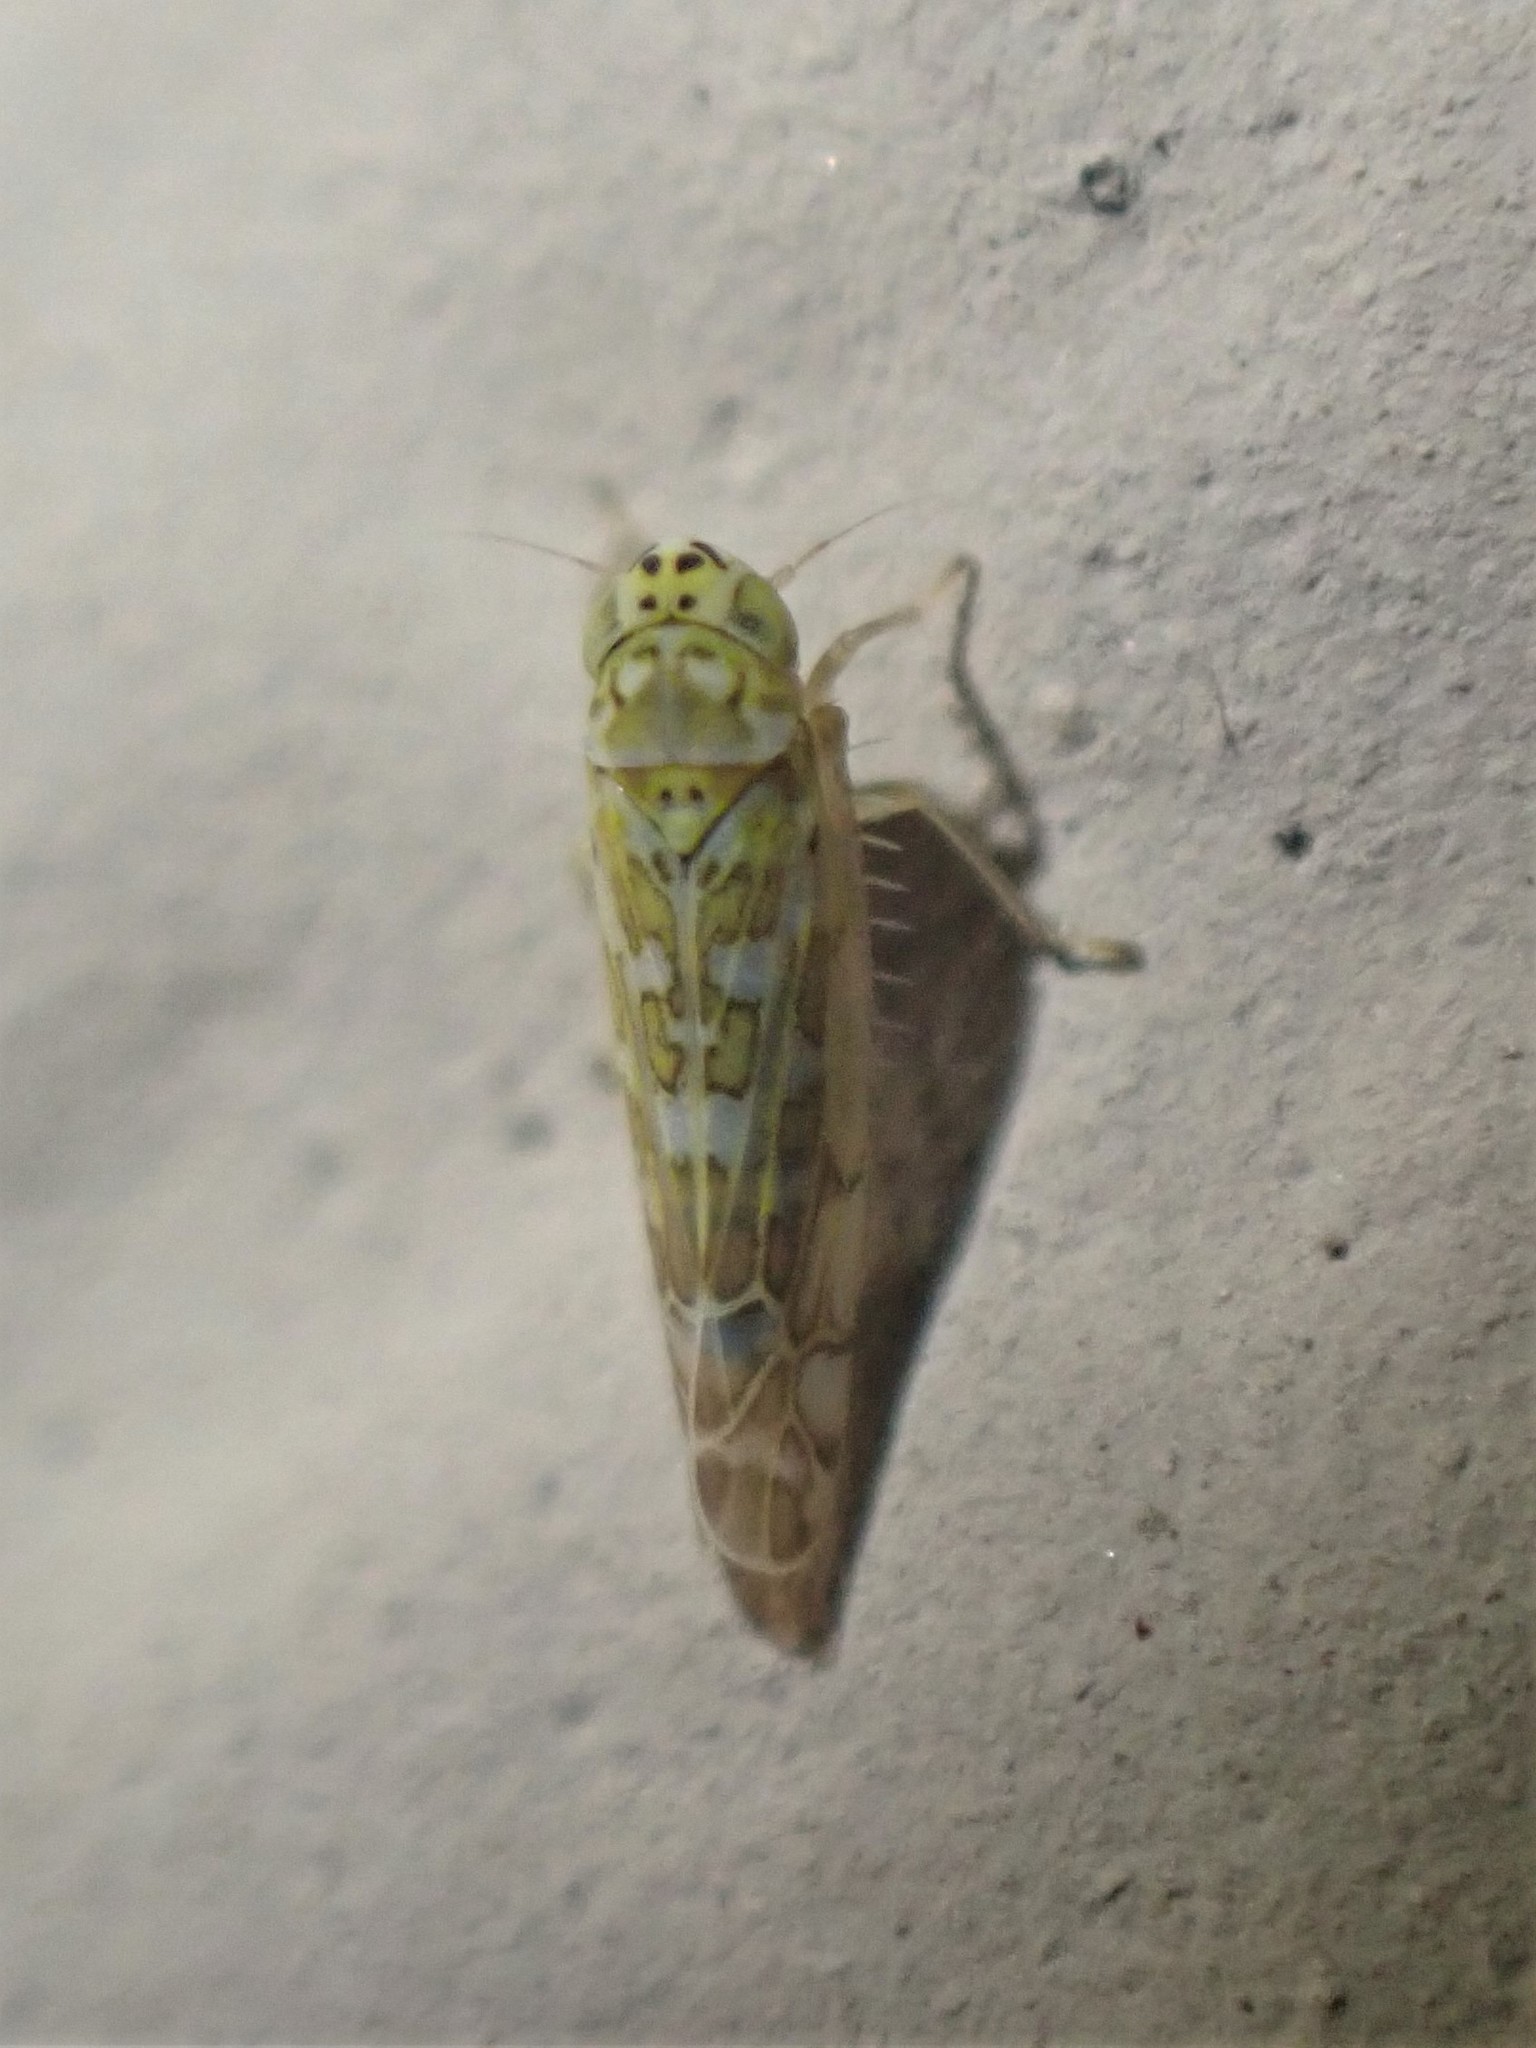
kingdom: Animalia
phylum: Arthropoda
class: Insecta
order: Hemiptera
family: Cicadellidae
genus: Eupteryx
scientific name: Eupteryx decemnotata
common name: Ligurian leafhopper
